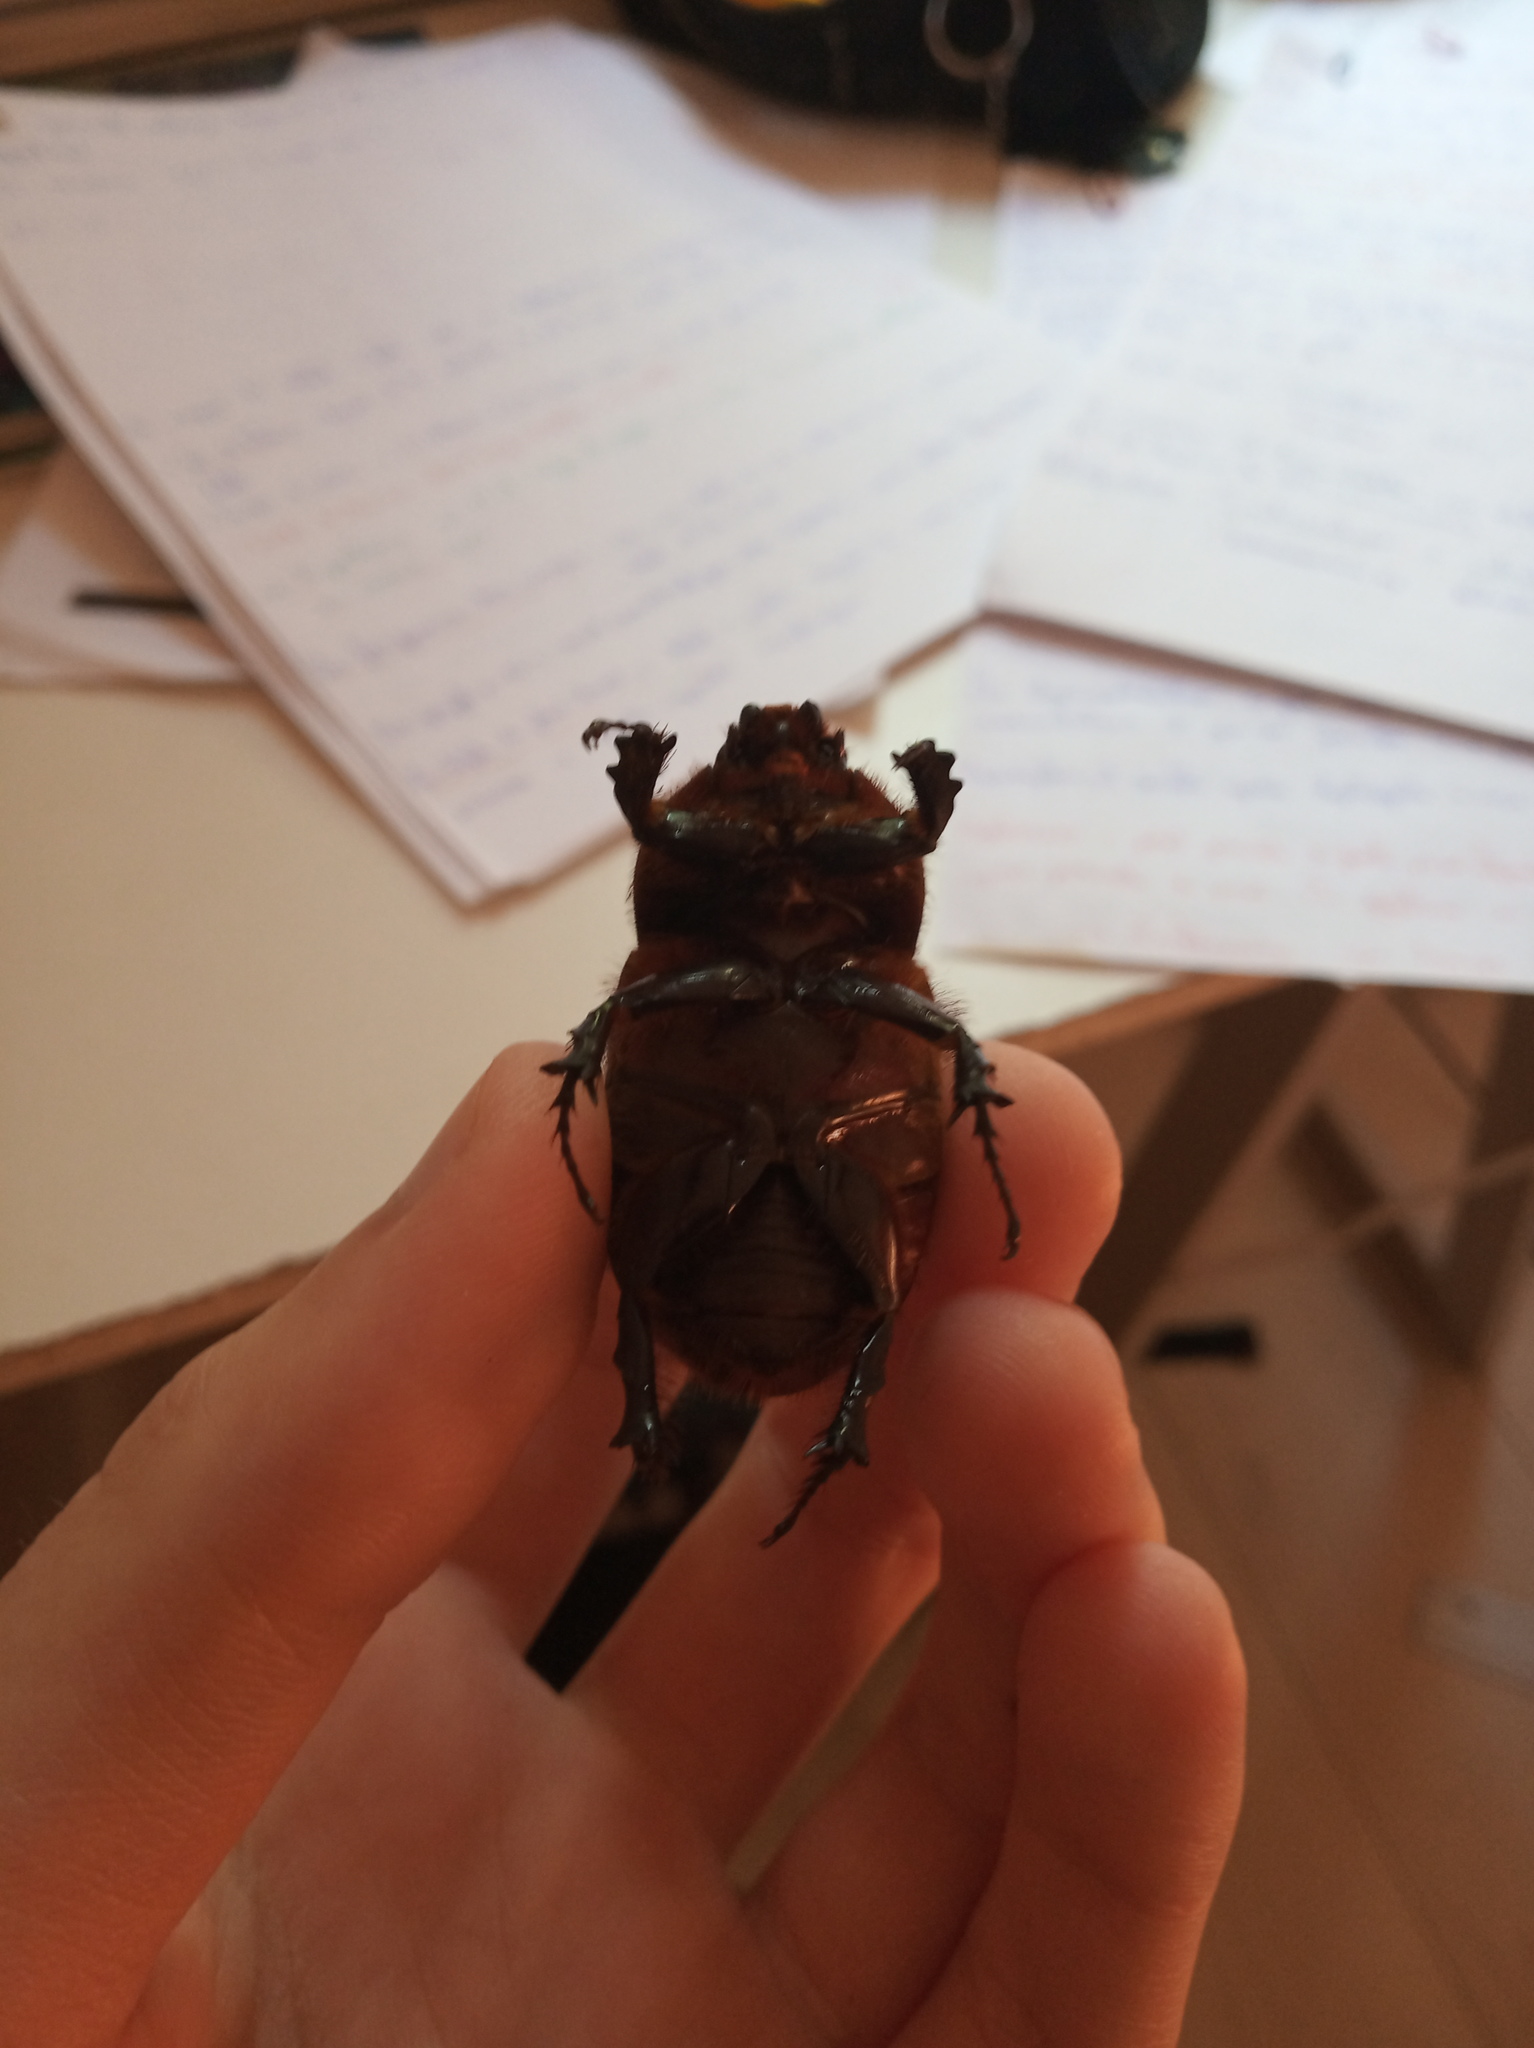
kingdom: Animalia
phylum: Arthropoda
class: Insecta
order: Coleoptera
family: Scarabaeidae
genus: Oryctes
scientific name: Oryctes nasicornis
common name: European rhinoceros beetle
